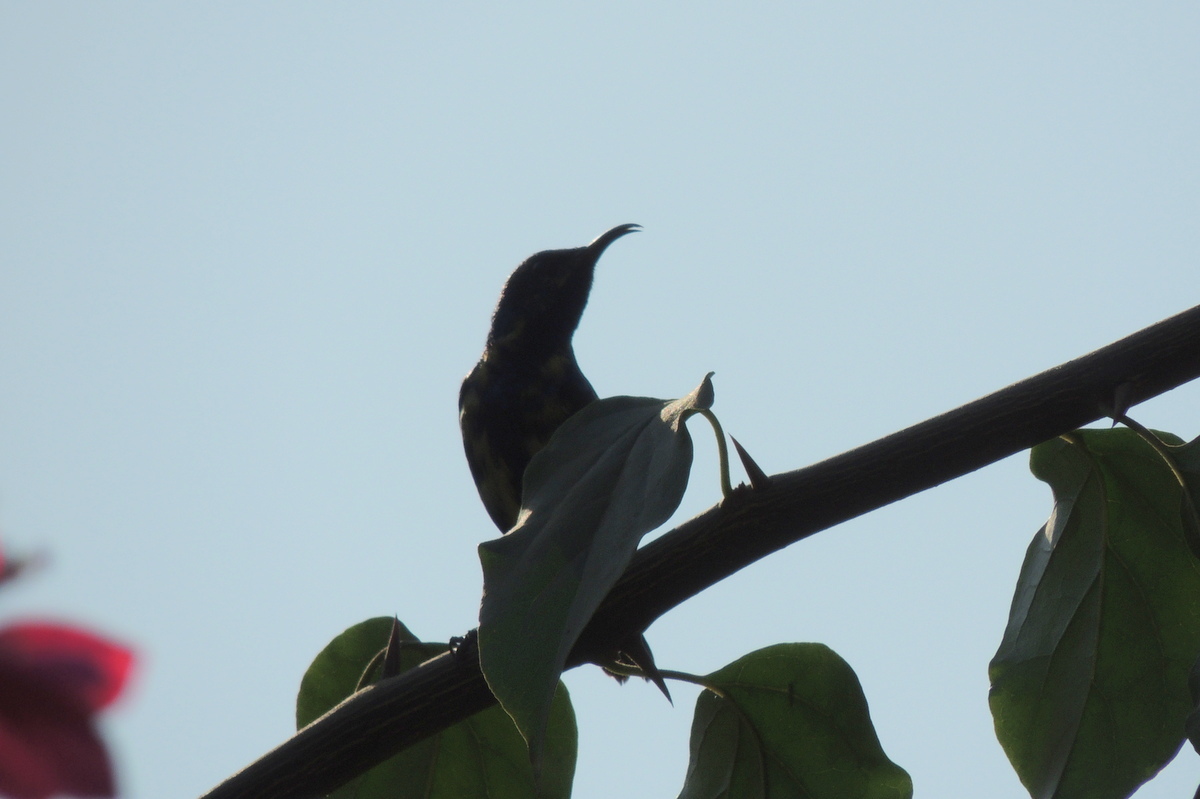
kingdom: Animalia
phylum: Chordata
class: Aves
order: Passeriformes
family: Nectariniidae
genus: Cinnyris
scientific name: Cinnyris asiaticus
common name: Purple sunbird
